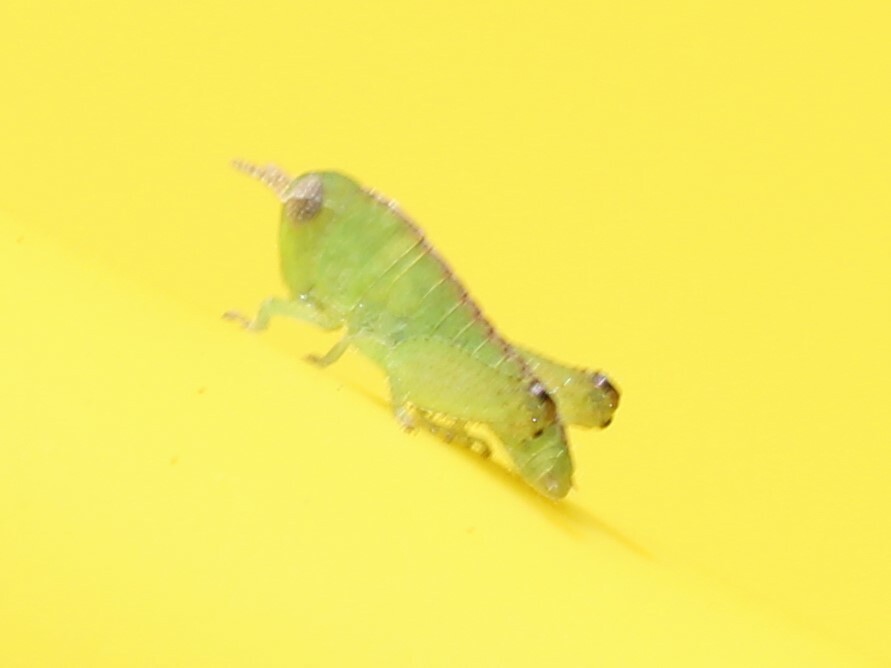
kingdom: Animalia
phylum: Arthropoda
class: Insecta
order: Orthoptera
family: Acrididae
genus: Chortophaga
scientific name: Chortophaga viridifasciata
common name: Green-striped grasshopper
